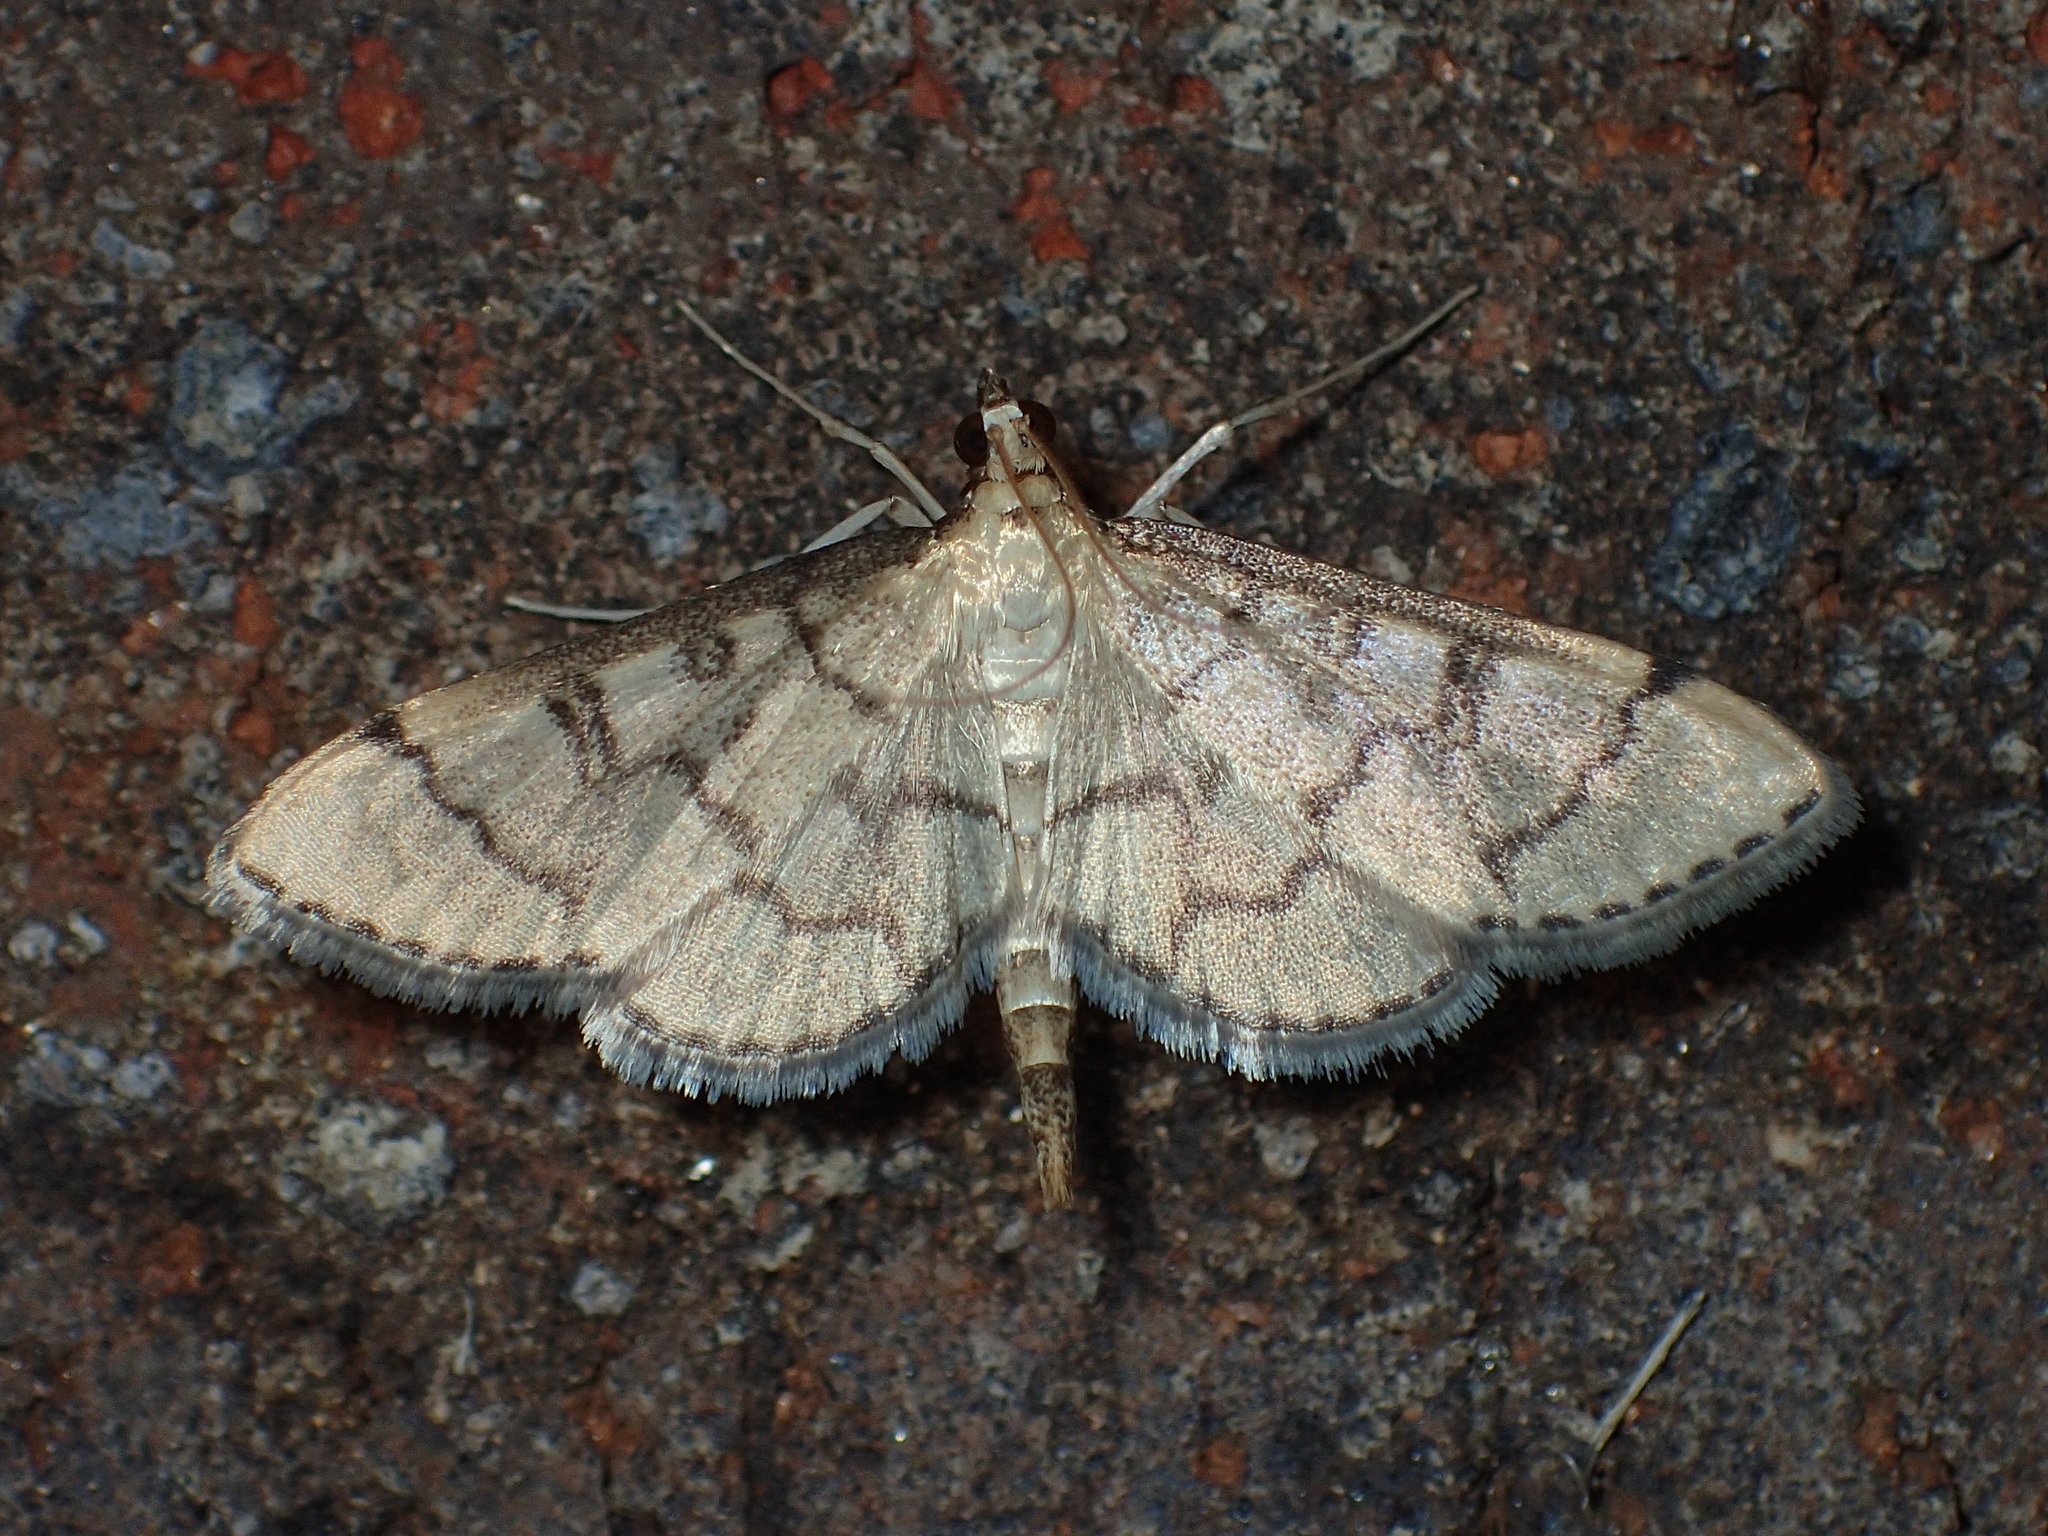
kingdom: Animalia
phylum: Arthropoda
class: Insecta
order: Lepidoptera
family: Crambidae
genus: Lamprosema
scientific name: Lamprosema Blepharomastix ranalis
